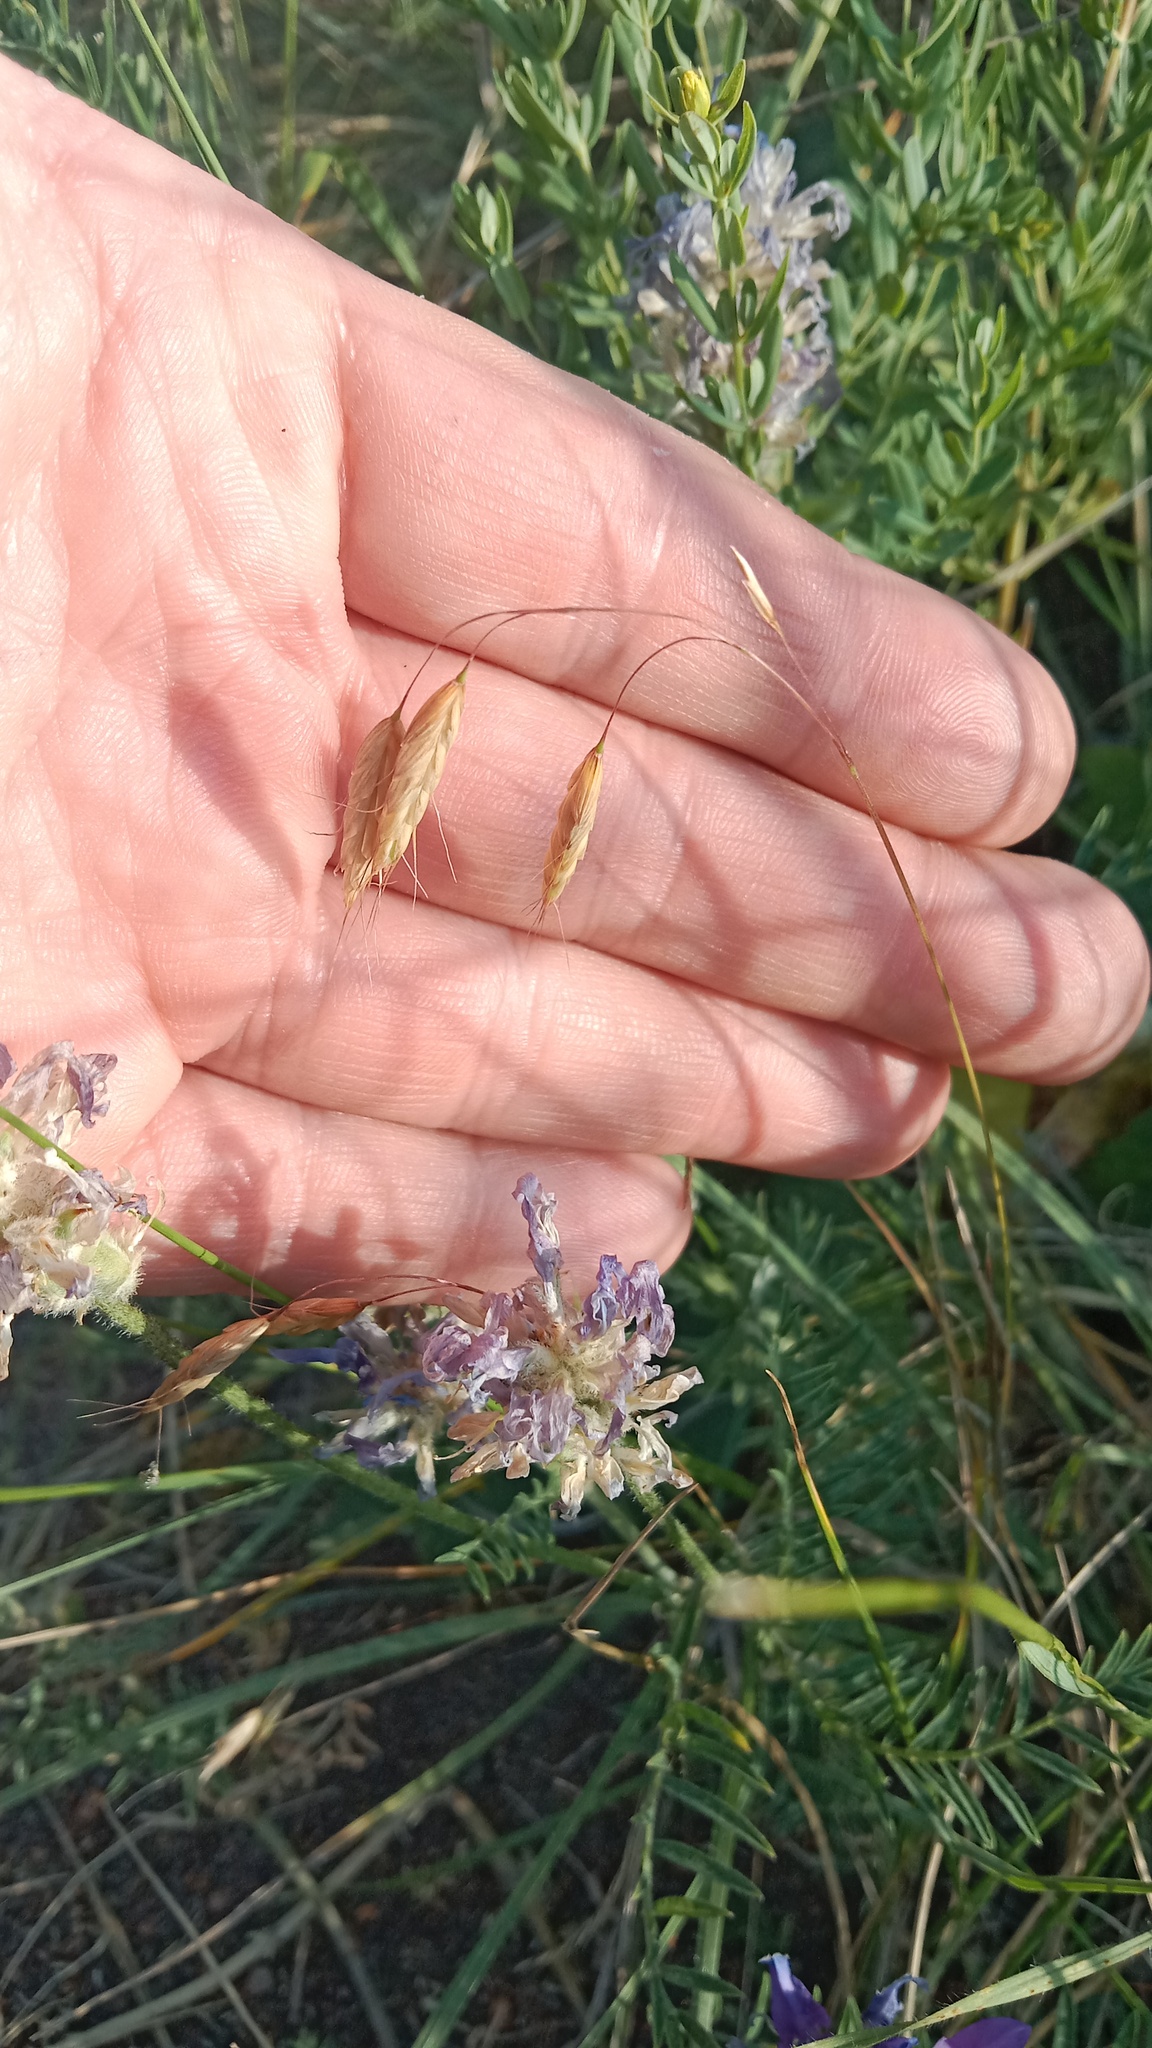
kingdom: Plantae
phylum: Tracheophyta
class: Liliopsida
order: Poales
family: Poaceae
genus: Bromus
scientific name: Bromus squarrosus
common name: Corn brome
